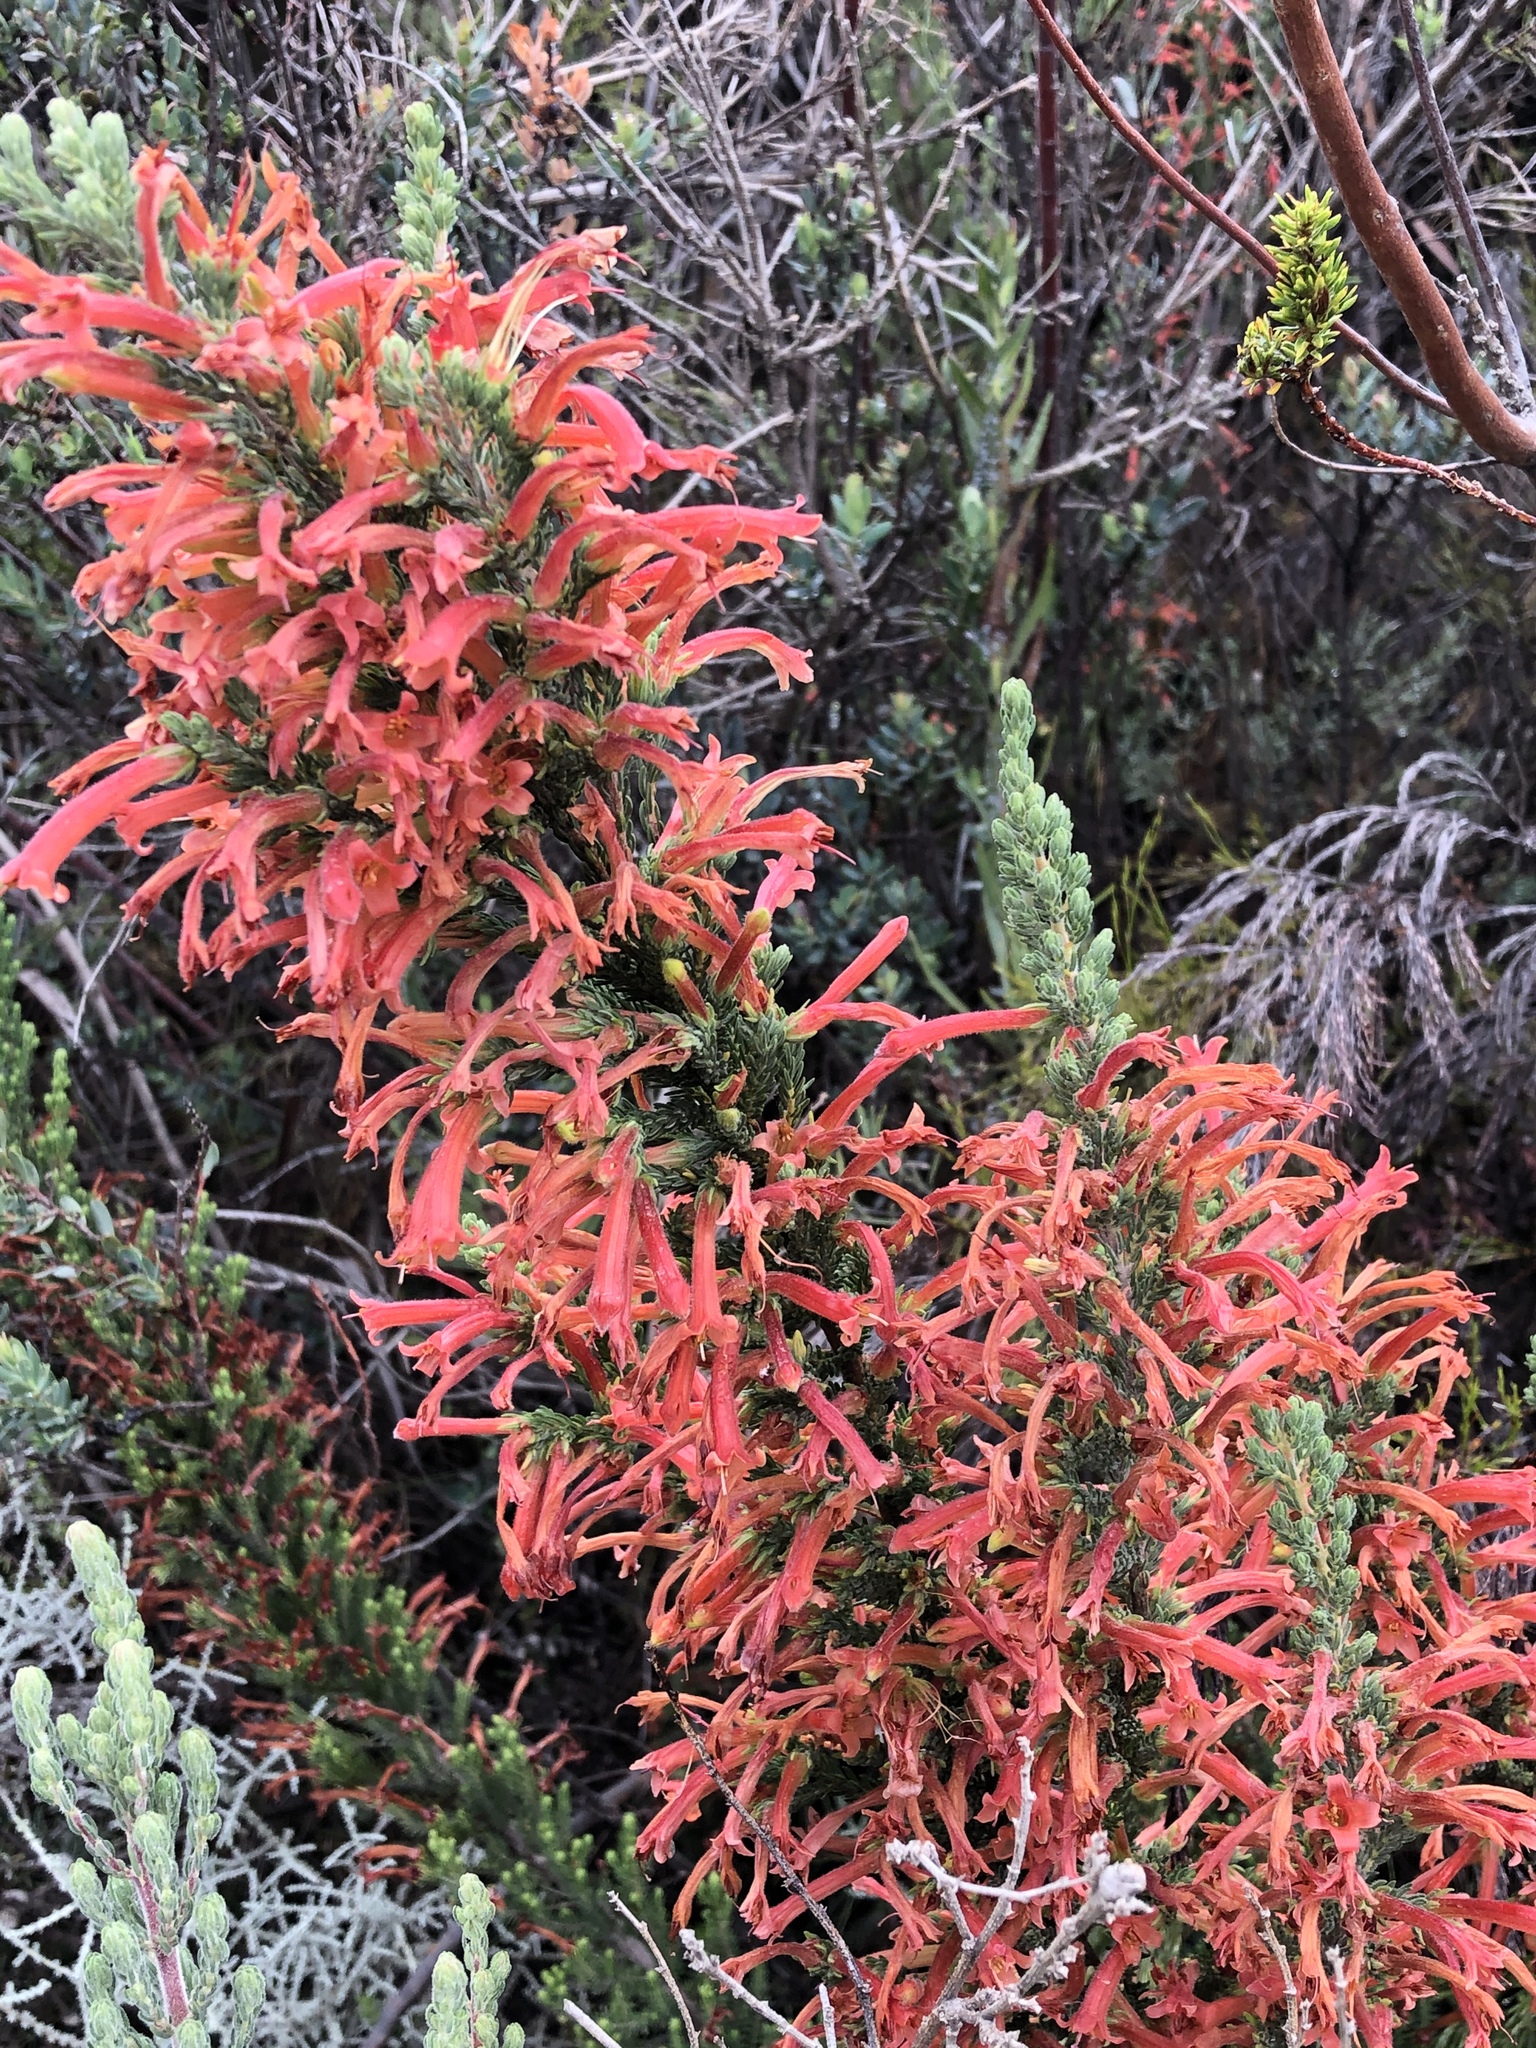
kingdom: Plantae
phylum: Tracheophyta
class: Magnoliopsida
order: Ericales
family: Ericaceae
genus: Erica
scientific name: Erica curviflora
